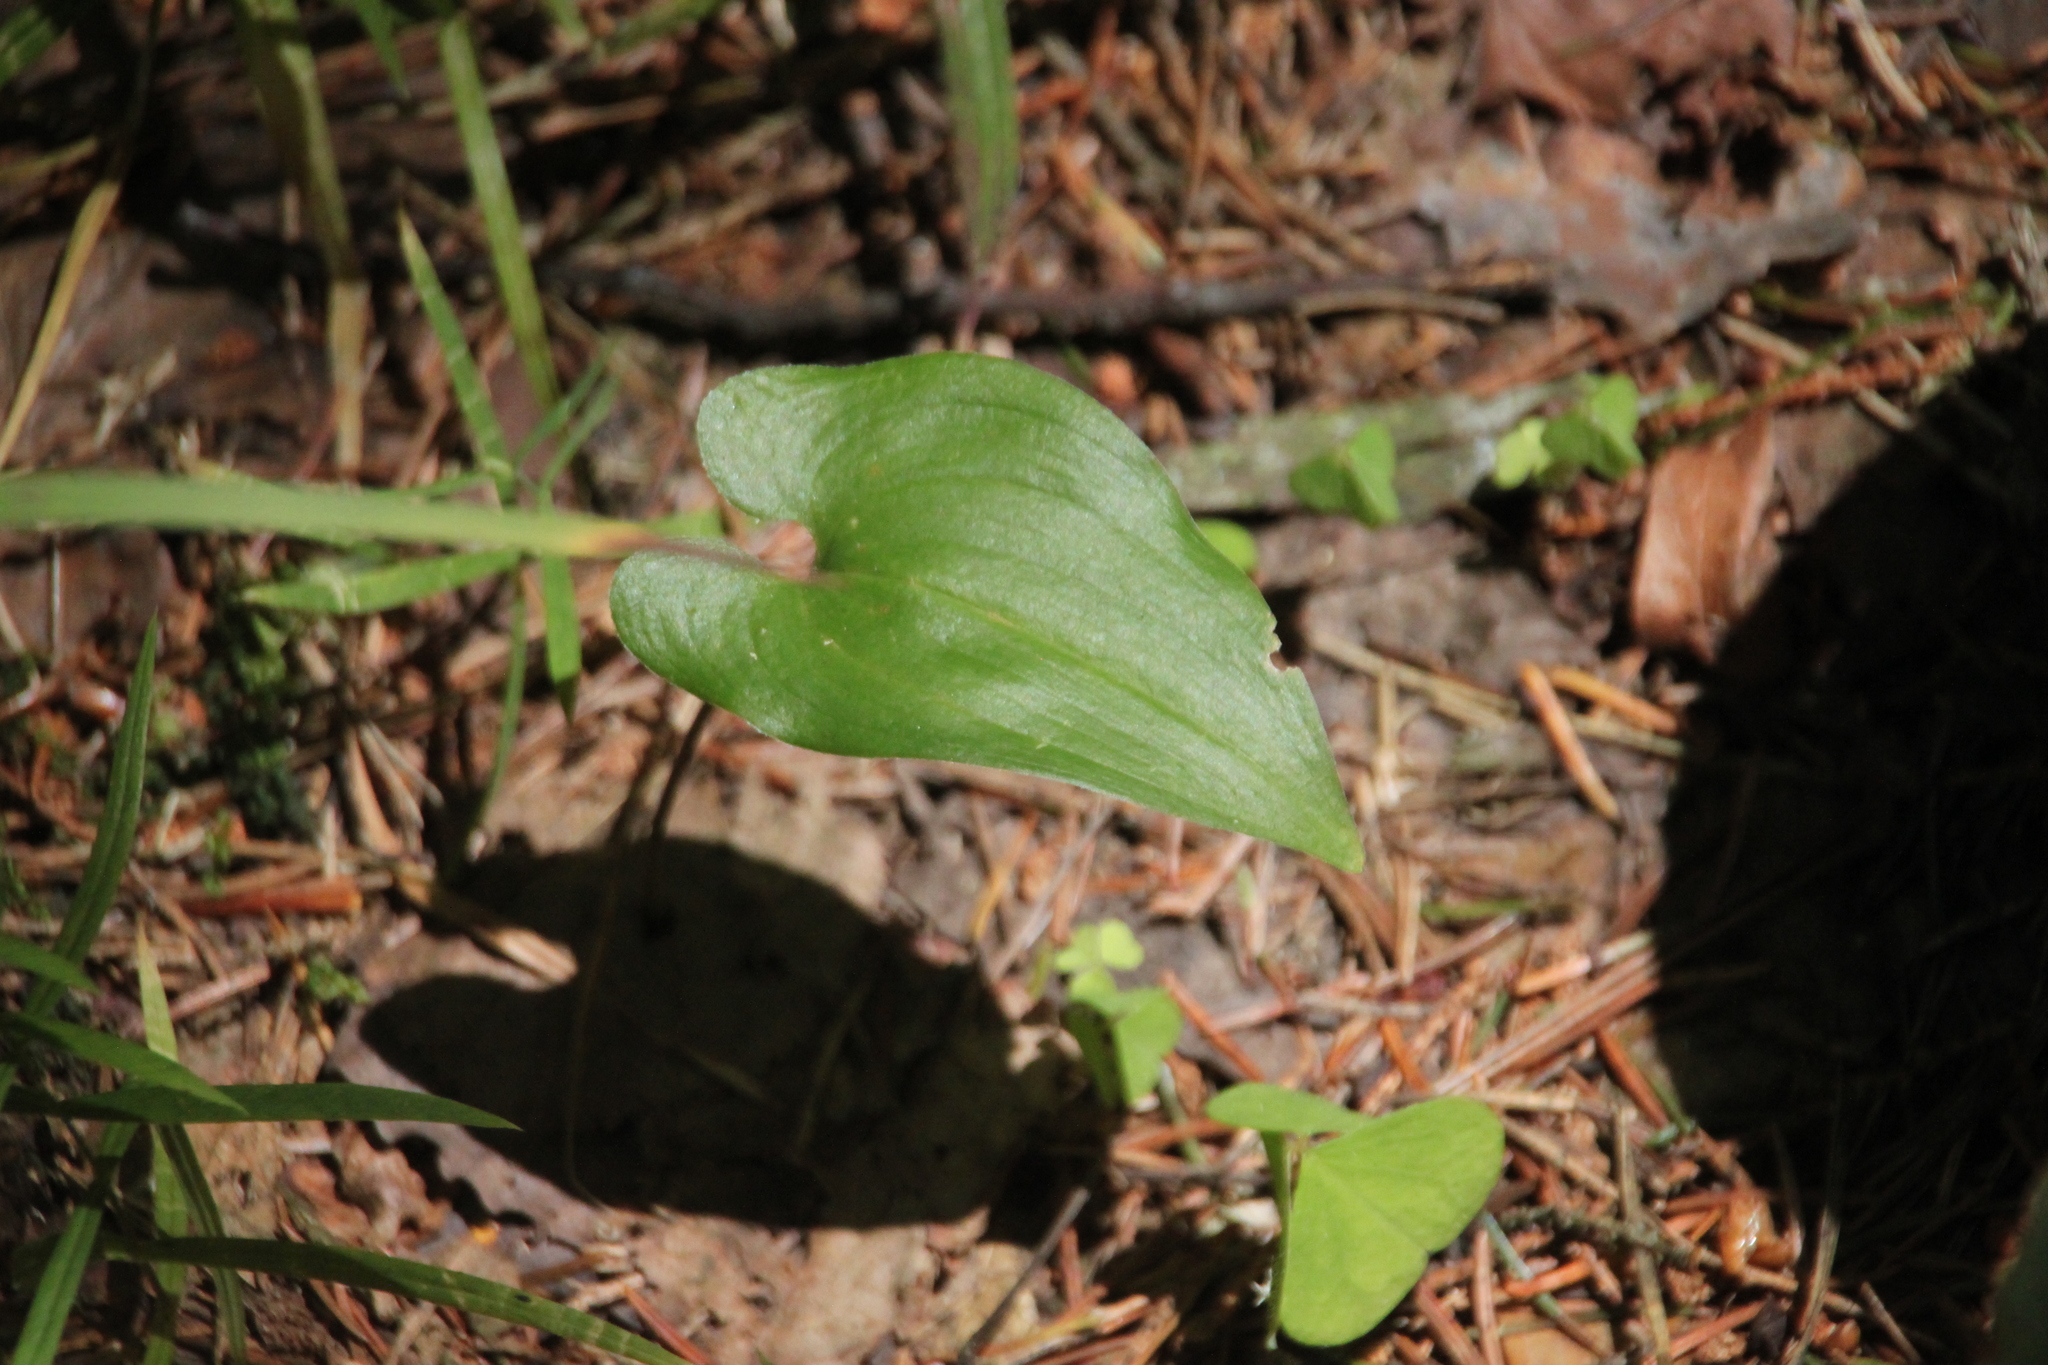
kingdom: Plantae
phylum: Tracheophyta
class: Liliopsida
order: Asparagales
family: Asparagaceae
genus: Maianthemum
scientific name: Maianthemum bifolium
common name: May lily
